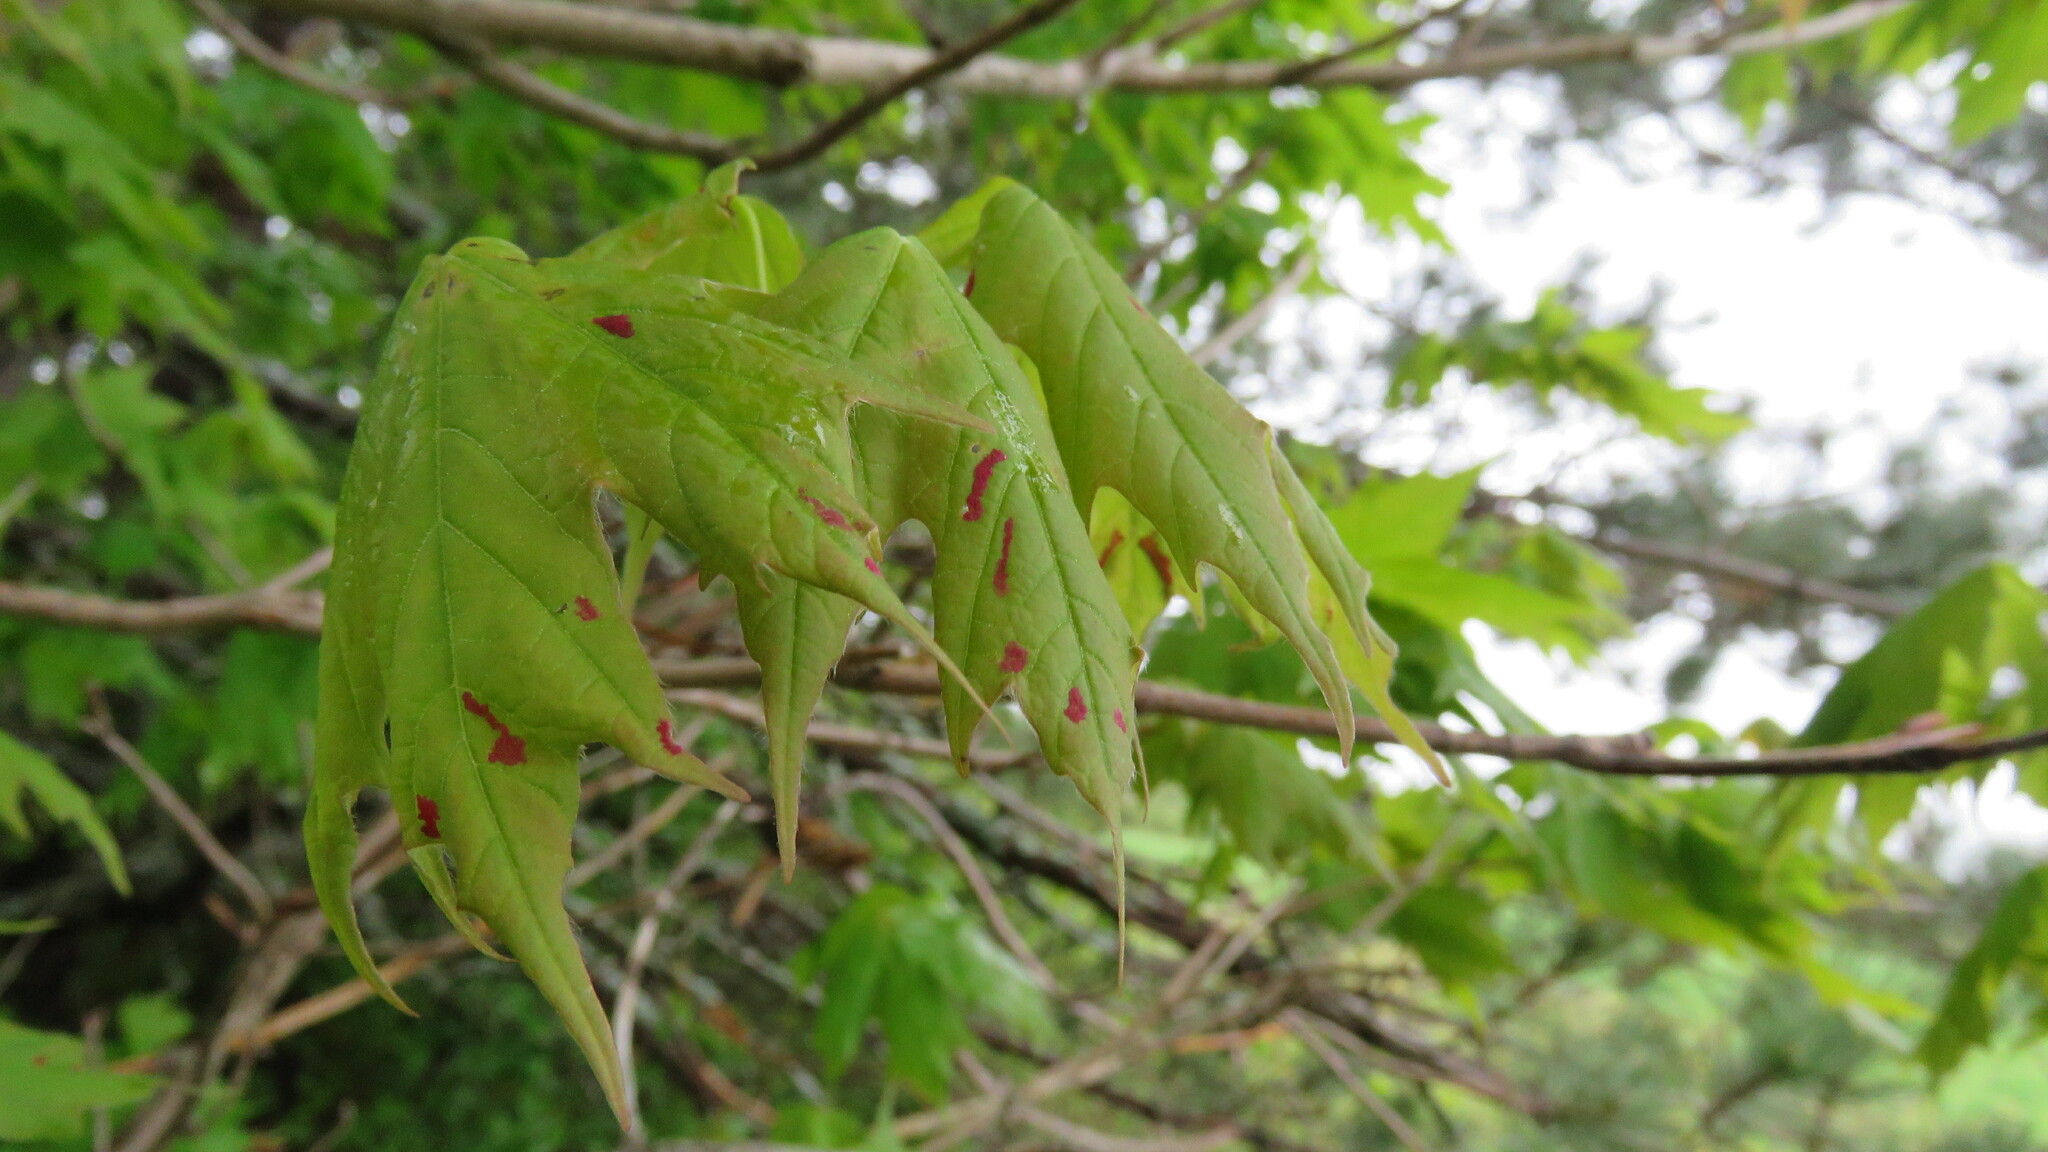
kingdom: Animalia
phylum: Arthropoda
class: Arachnida
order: Trombidiformes
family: Eriophyidae
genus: Aceria
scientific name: Aceria
